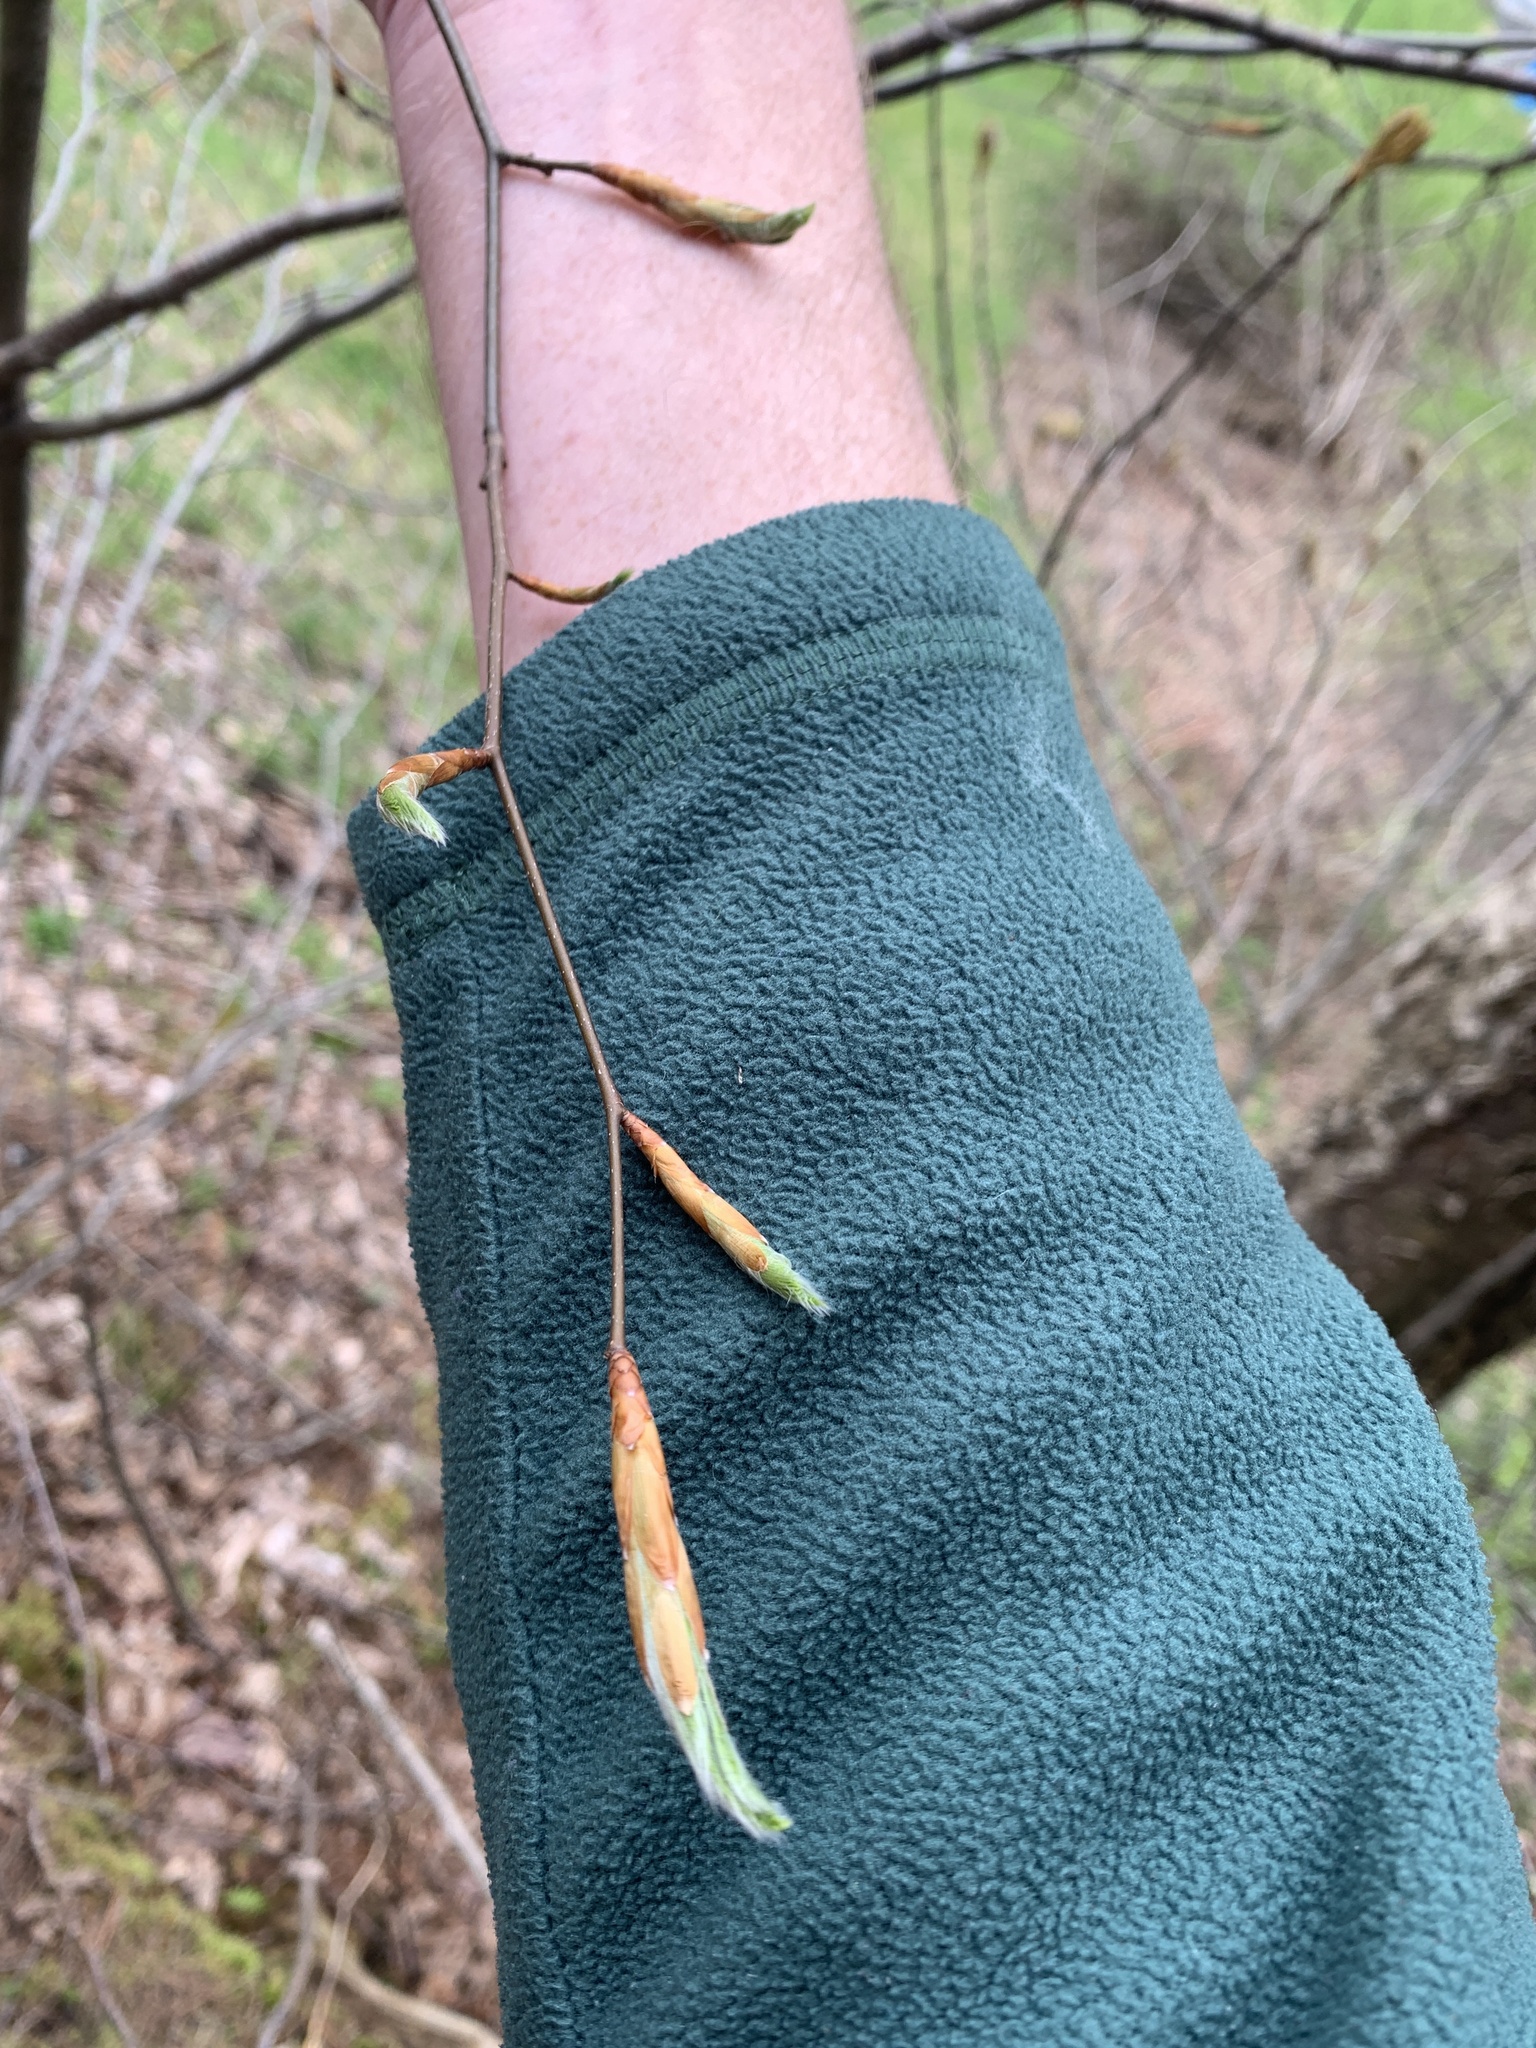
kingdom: Plantae
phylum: Tracheophyta
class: Magnoliopsida
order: Fagales
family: Fagaceae
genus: Fagus
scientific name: Fagus grandifolia
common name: American beech
